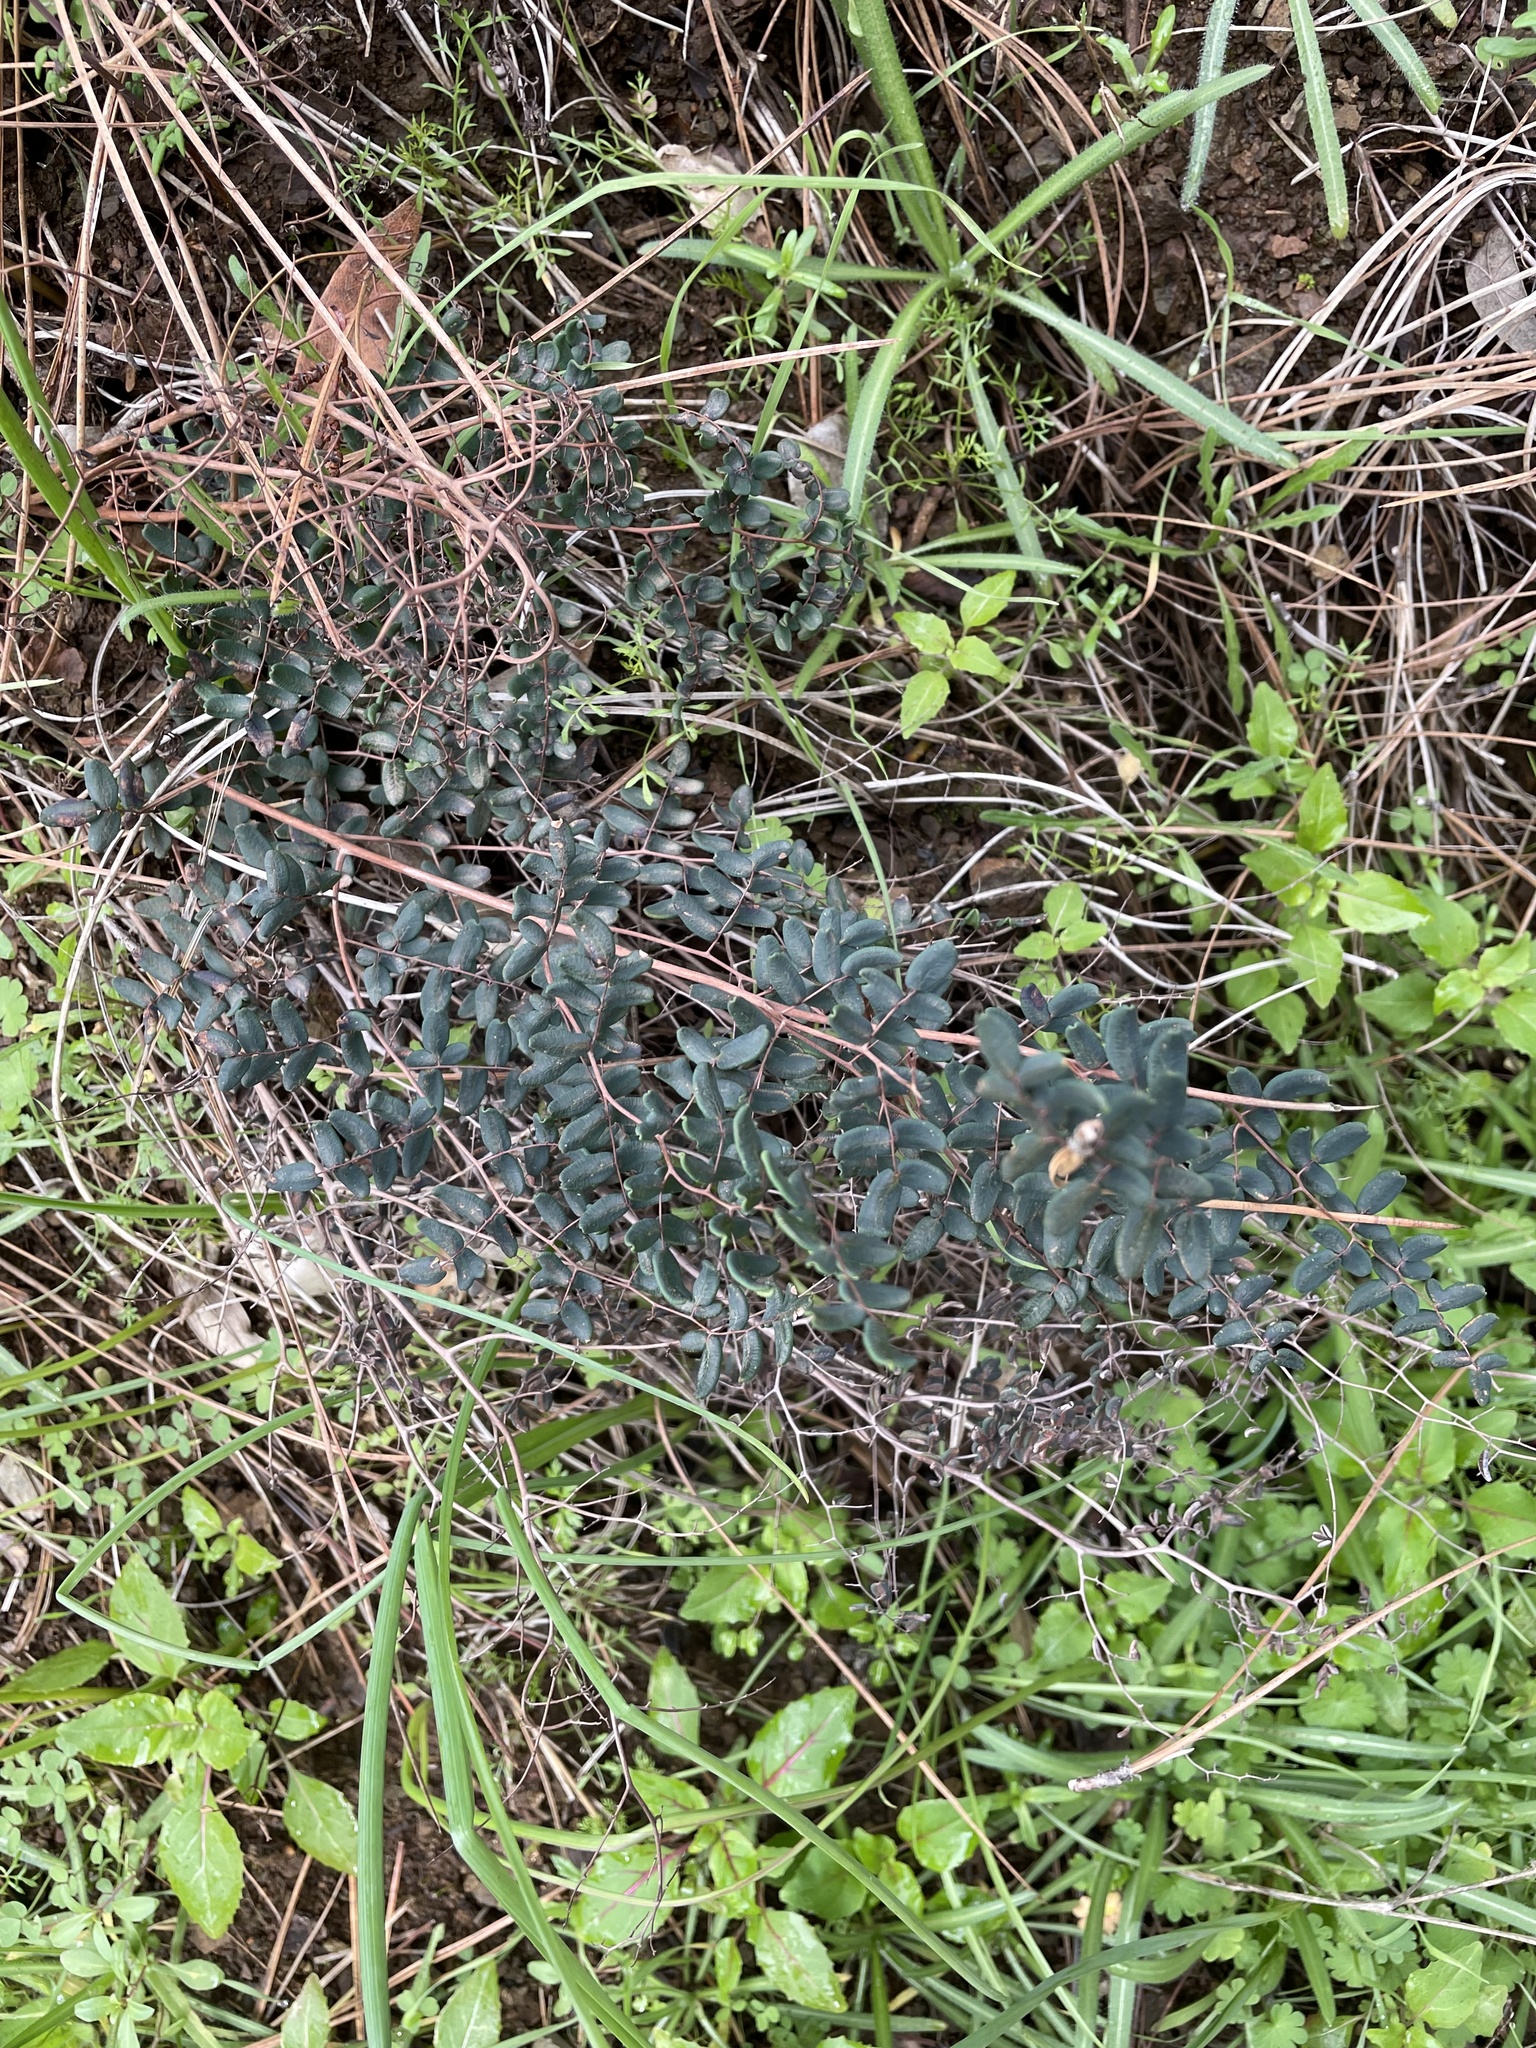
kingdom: Plantae
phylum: Tracheophyta
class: Polypodiopsida
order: Polypodiales
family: Pteridaceae
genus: Pellaea
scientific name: Pellaea andromedifolia
